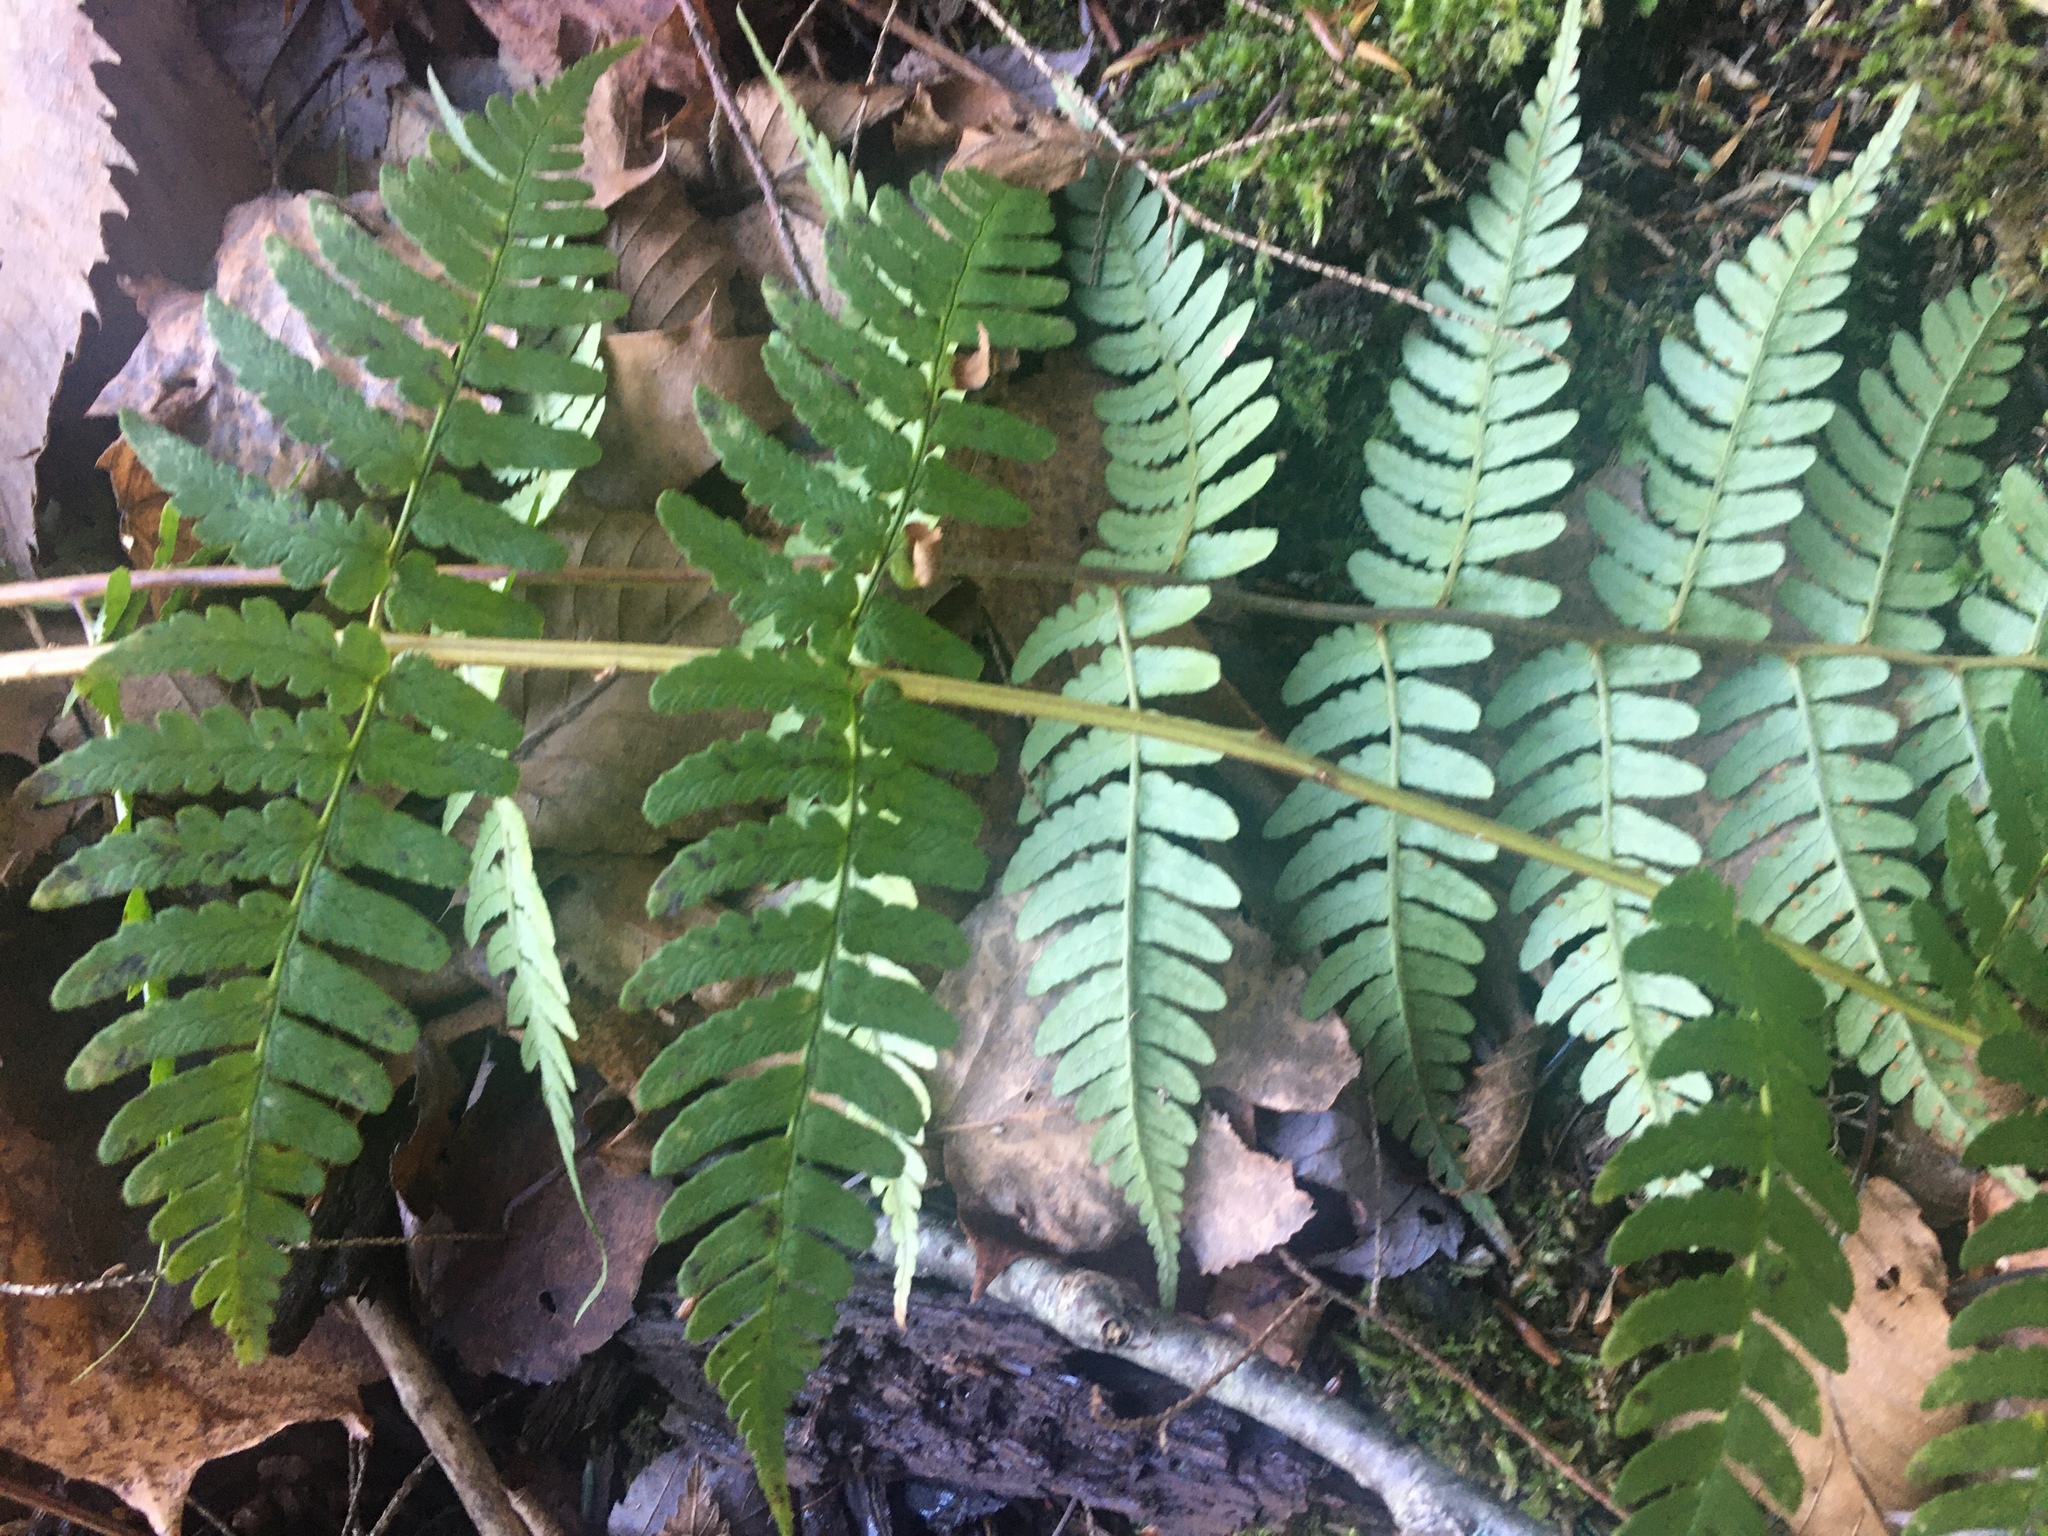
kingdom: Plantae
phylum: Tracheophyta
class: Polypodiopsida
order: Polypodiales
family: Dryopteridaceae
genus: Dryopteris
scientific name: Dryopteris marginalis
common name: Marginal wood fern
